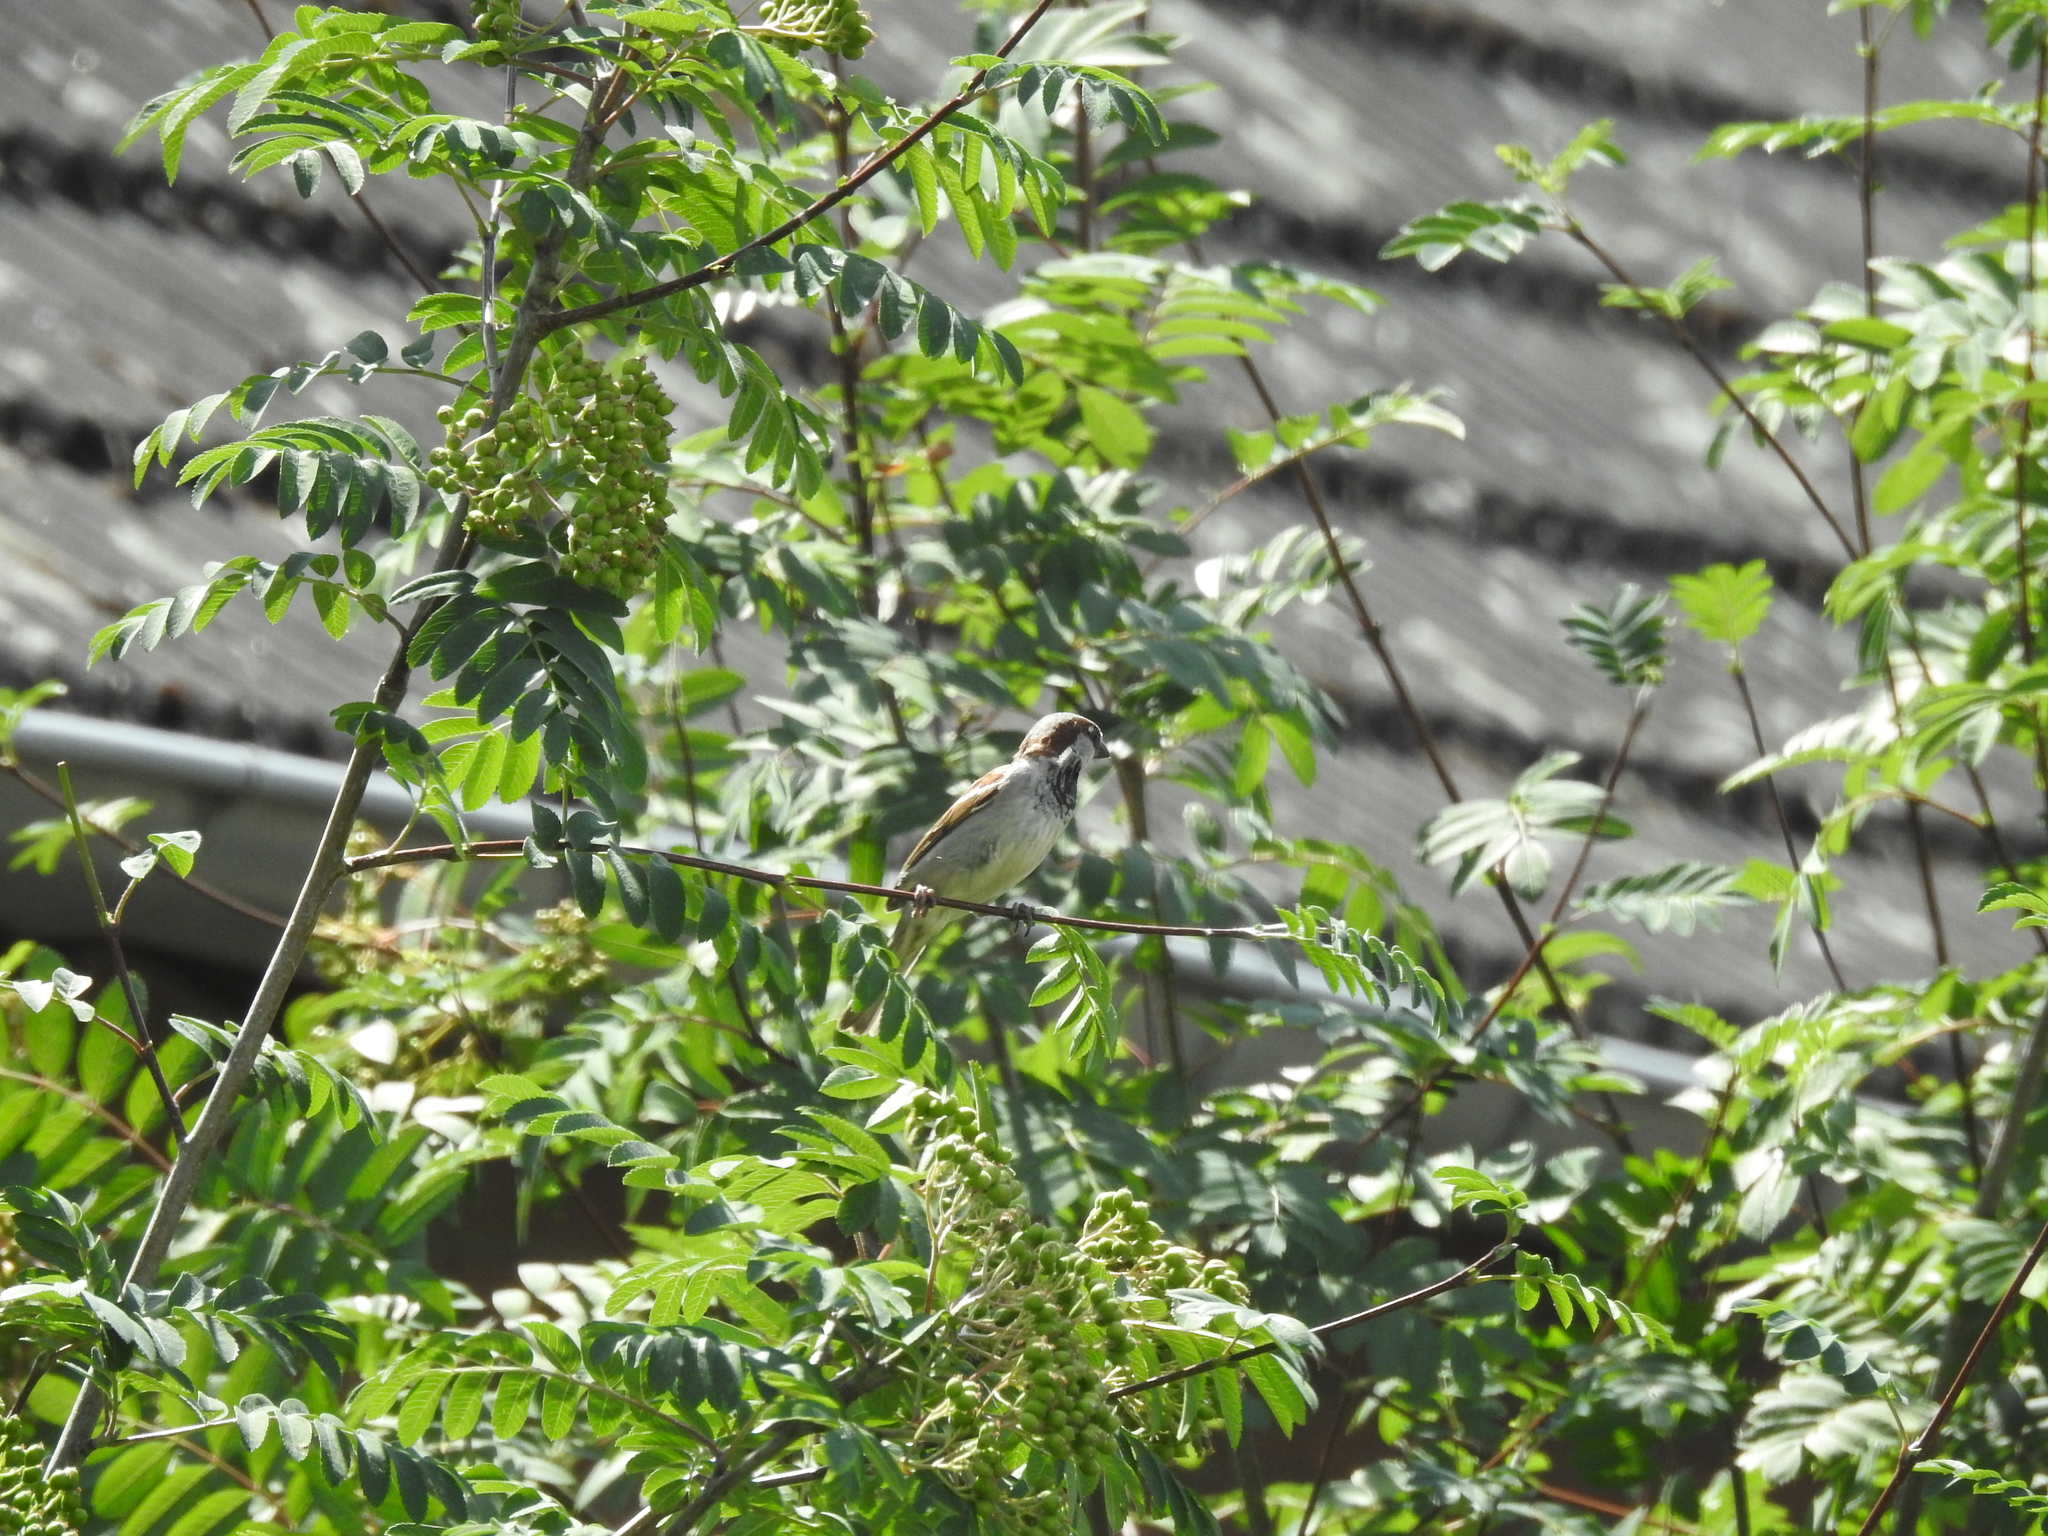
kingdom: Animalia
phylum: Chordata
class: Aves
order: Passeriformes
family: Passeridae
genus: Passer
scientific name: Passer domesticus
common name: House sparrow
